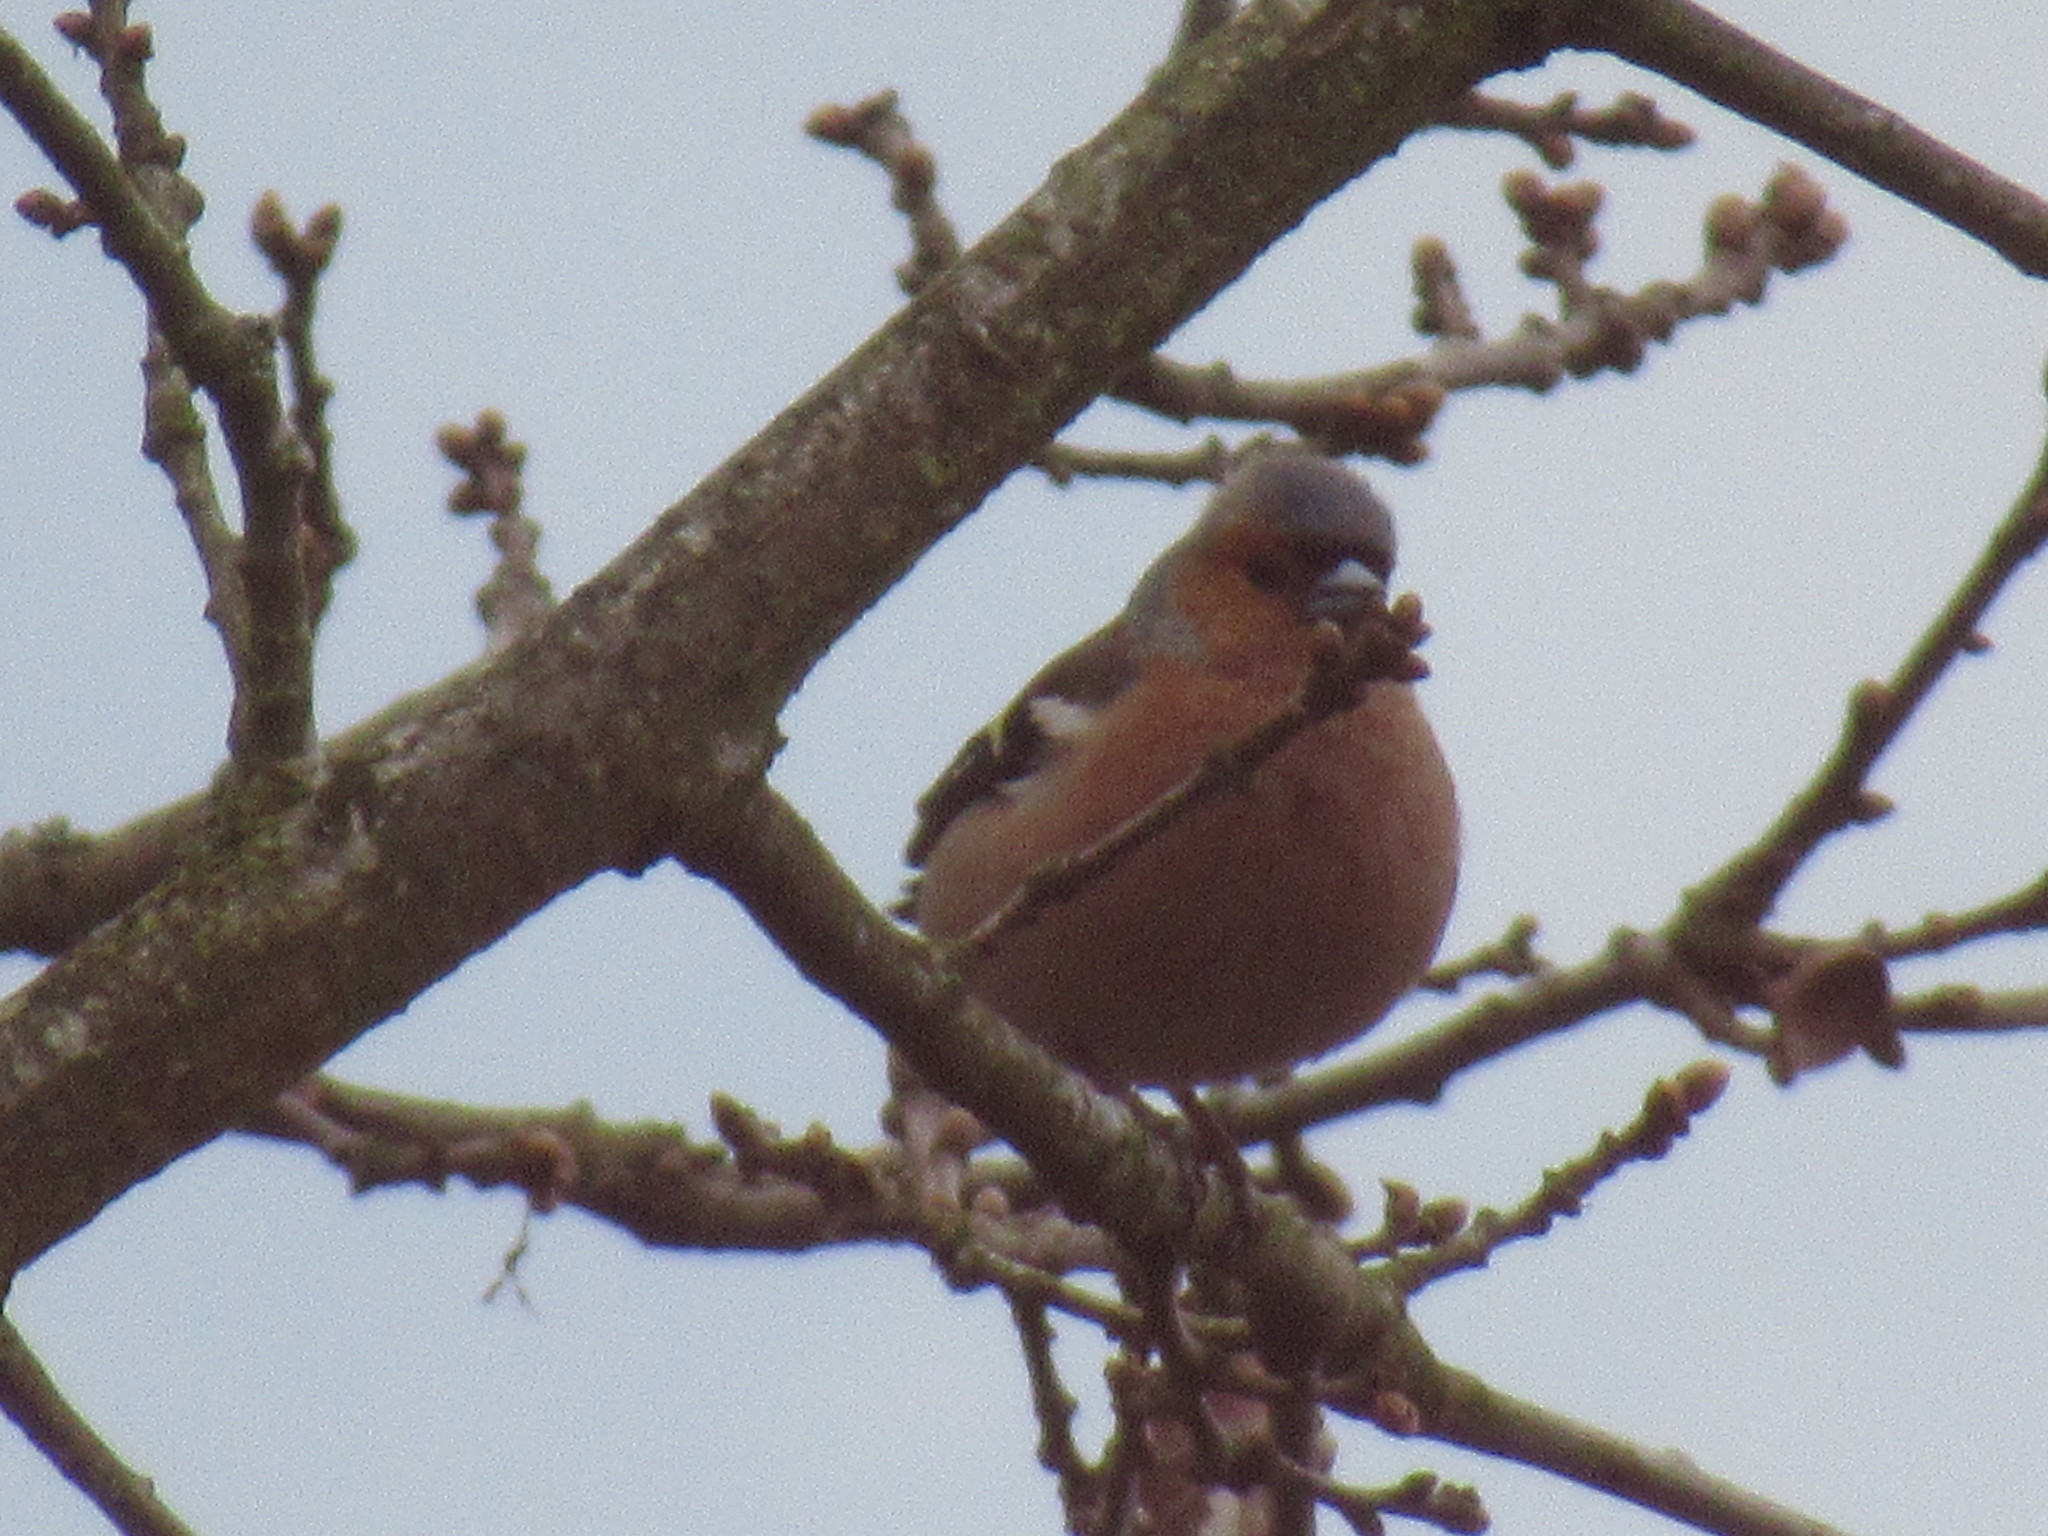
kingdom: Animalia
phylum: Chordata
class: Aves
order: Passeriformes
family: Fringillidae
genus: Fringilla
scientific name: Fringilla coelebs
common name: Common chaffinch
